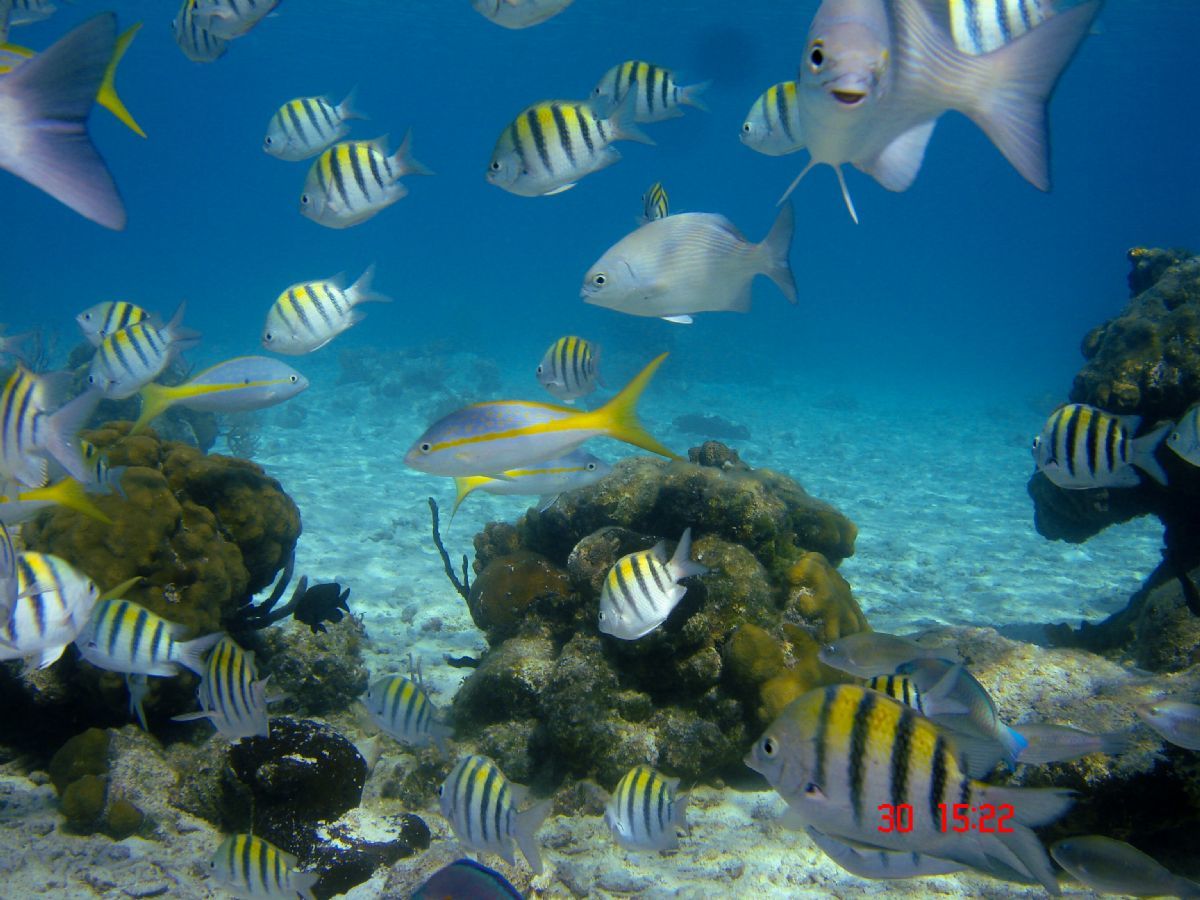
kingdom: Animalia
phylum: Chordata
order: Perciformes
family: Lutjanidae
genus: Ocyurus
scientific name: Ocyurus chrysurus
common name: Yellowtail snapper
